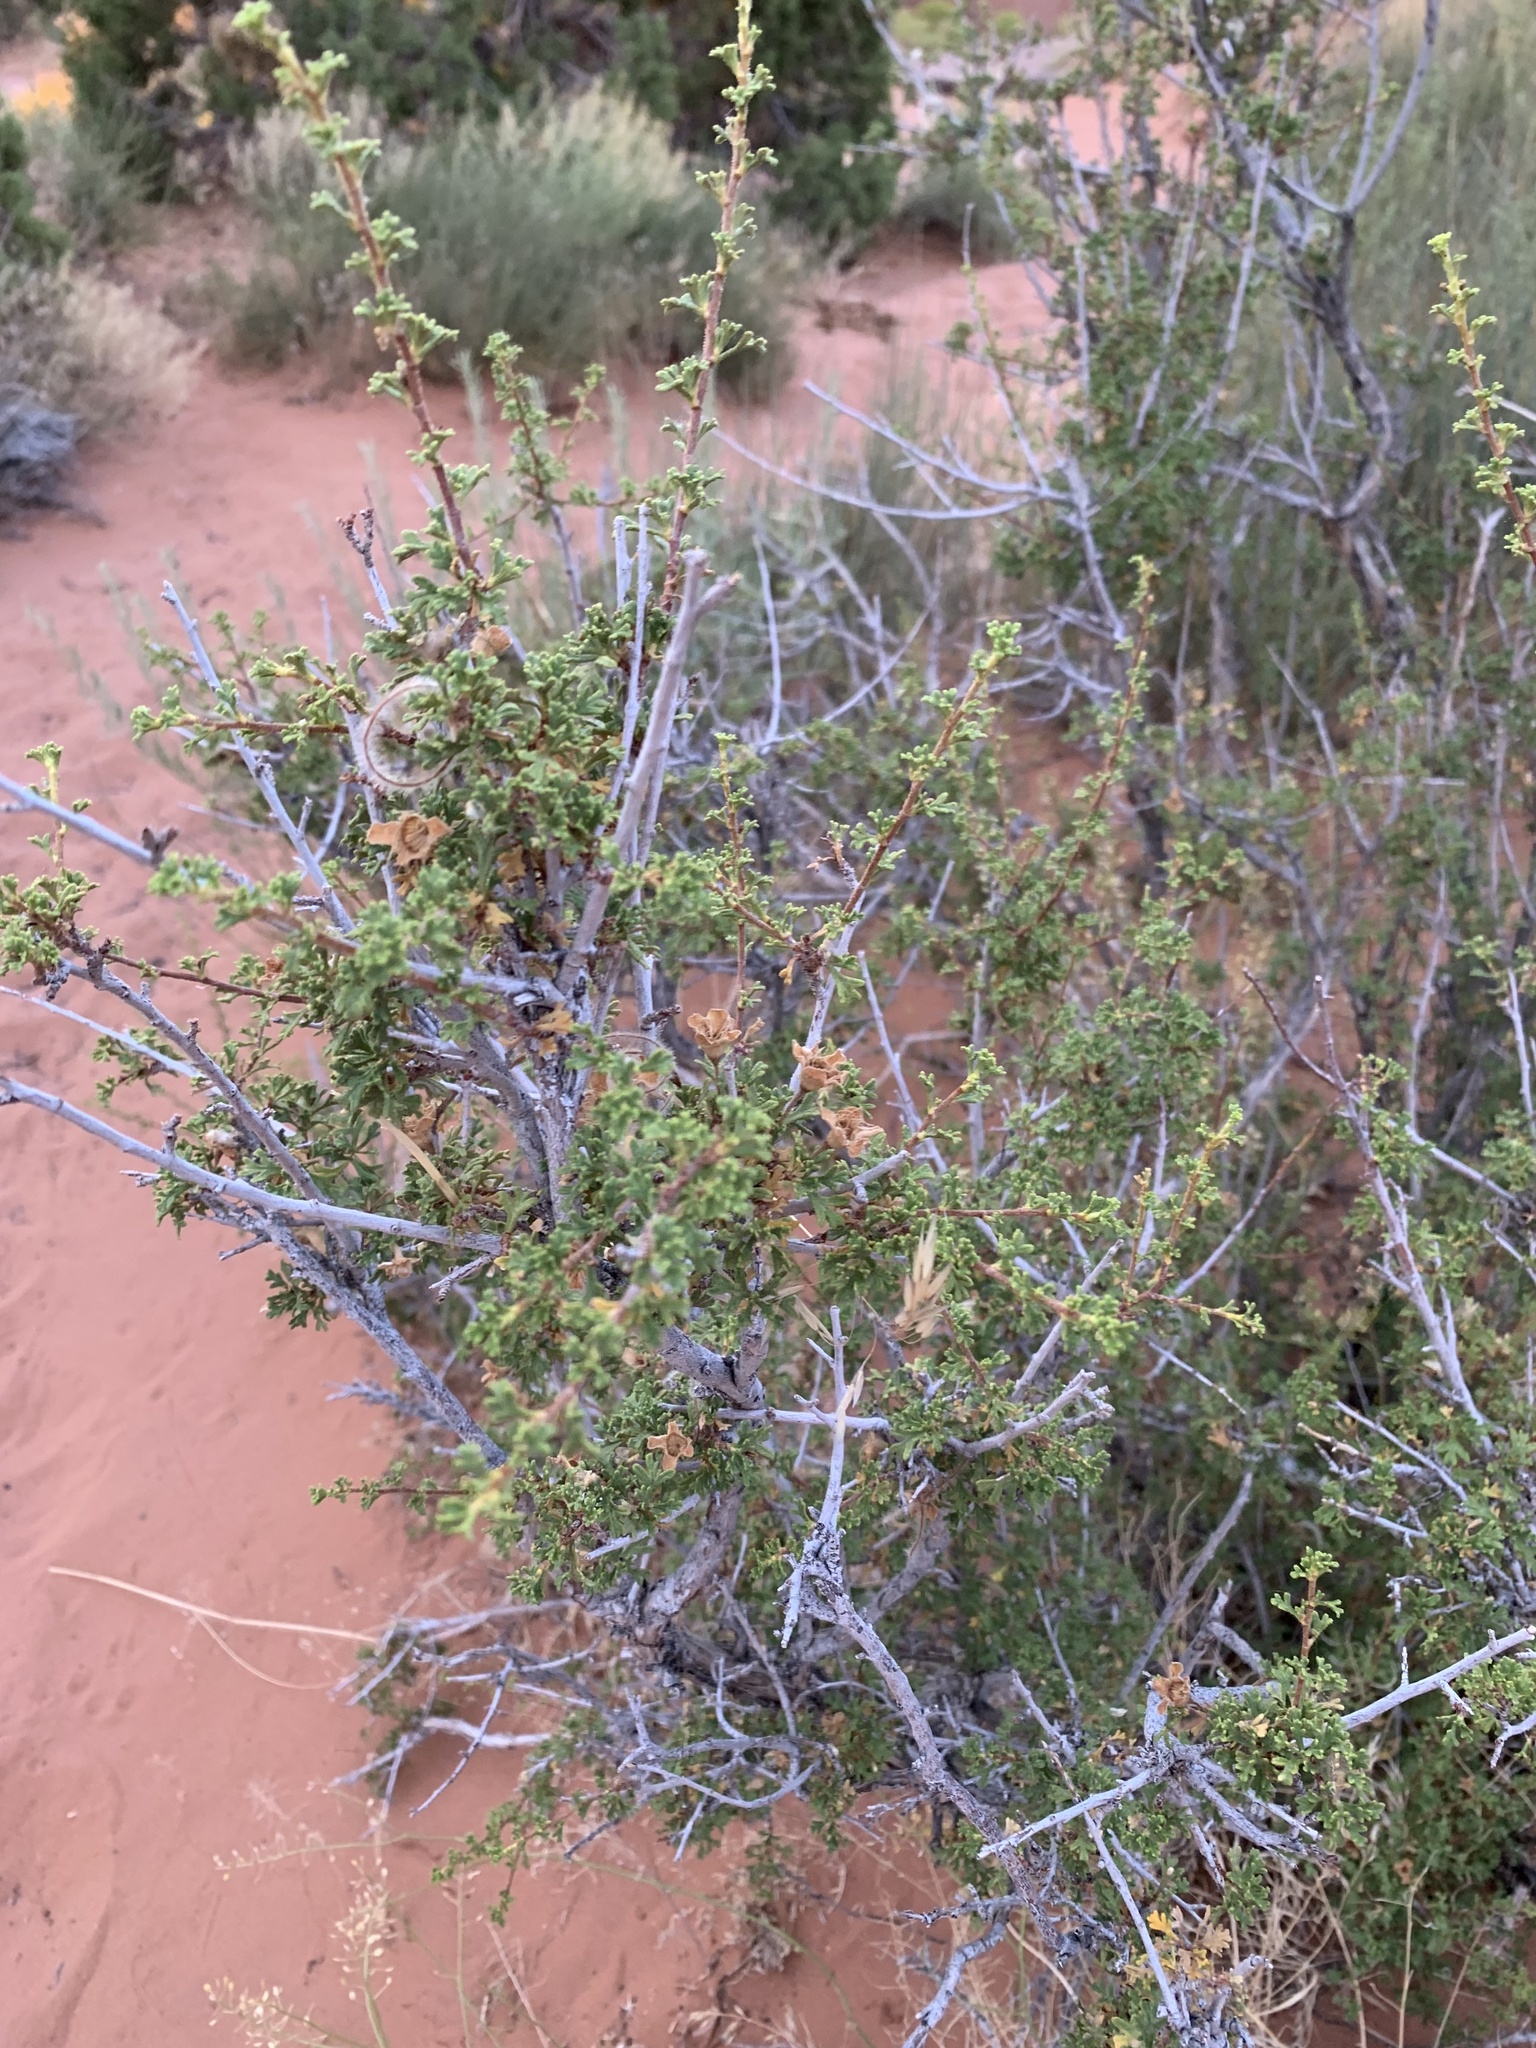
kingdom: Plantae
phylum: Tracheophyta
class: Magnoliopsida
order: Rosales
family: Rosaceae
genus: Purshia
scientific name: Purshia stansburiana
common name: Stansbury's cliffrose
